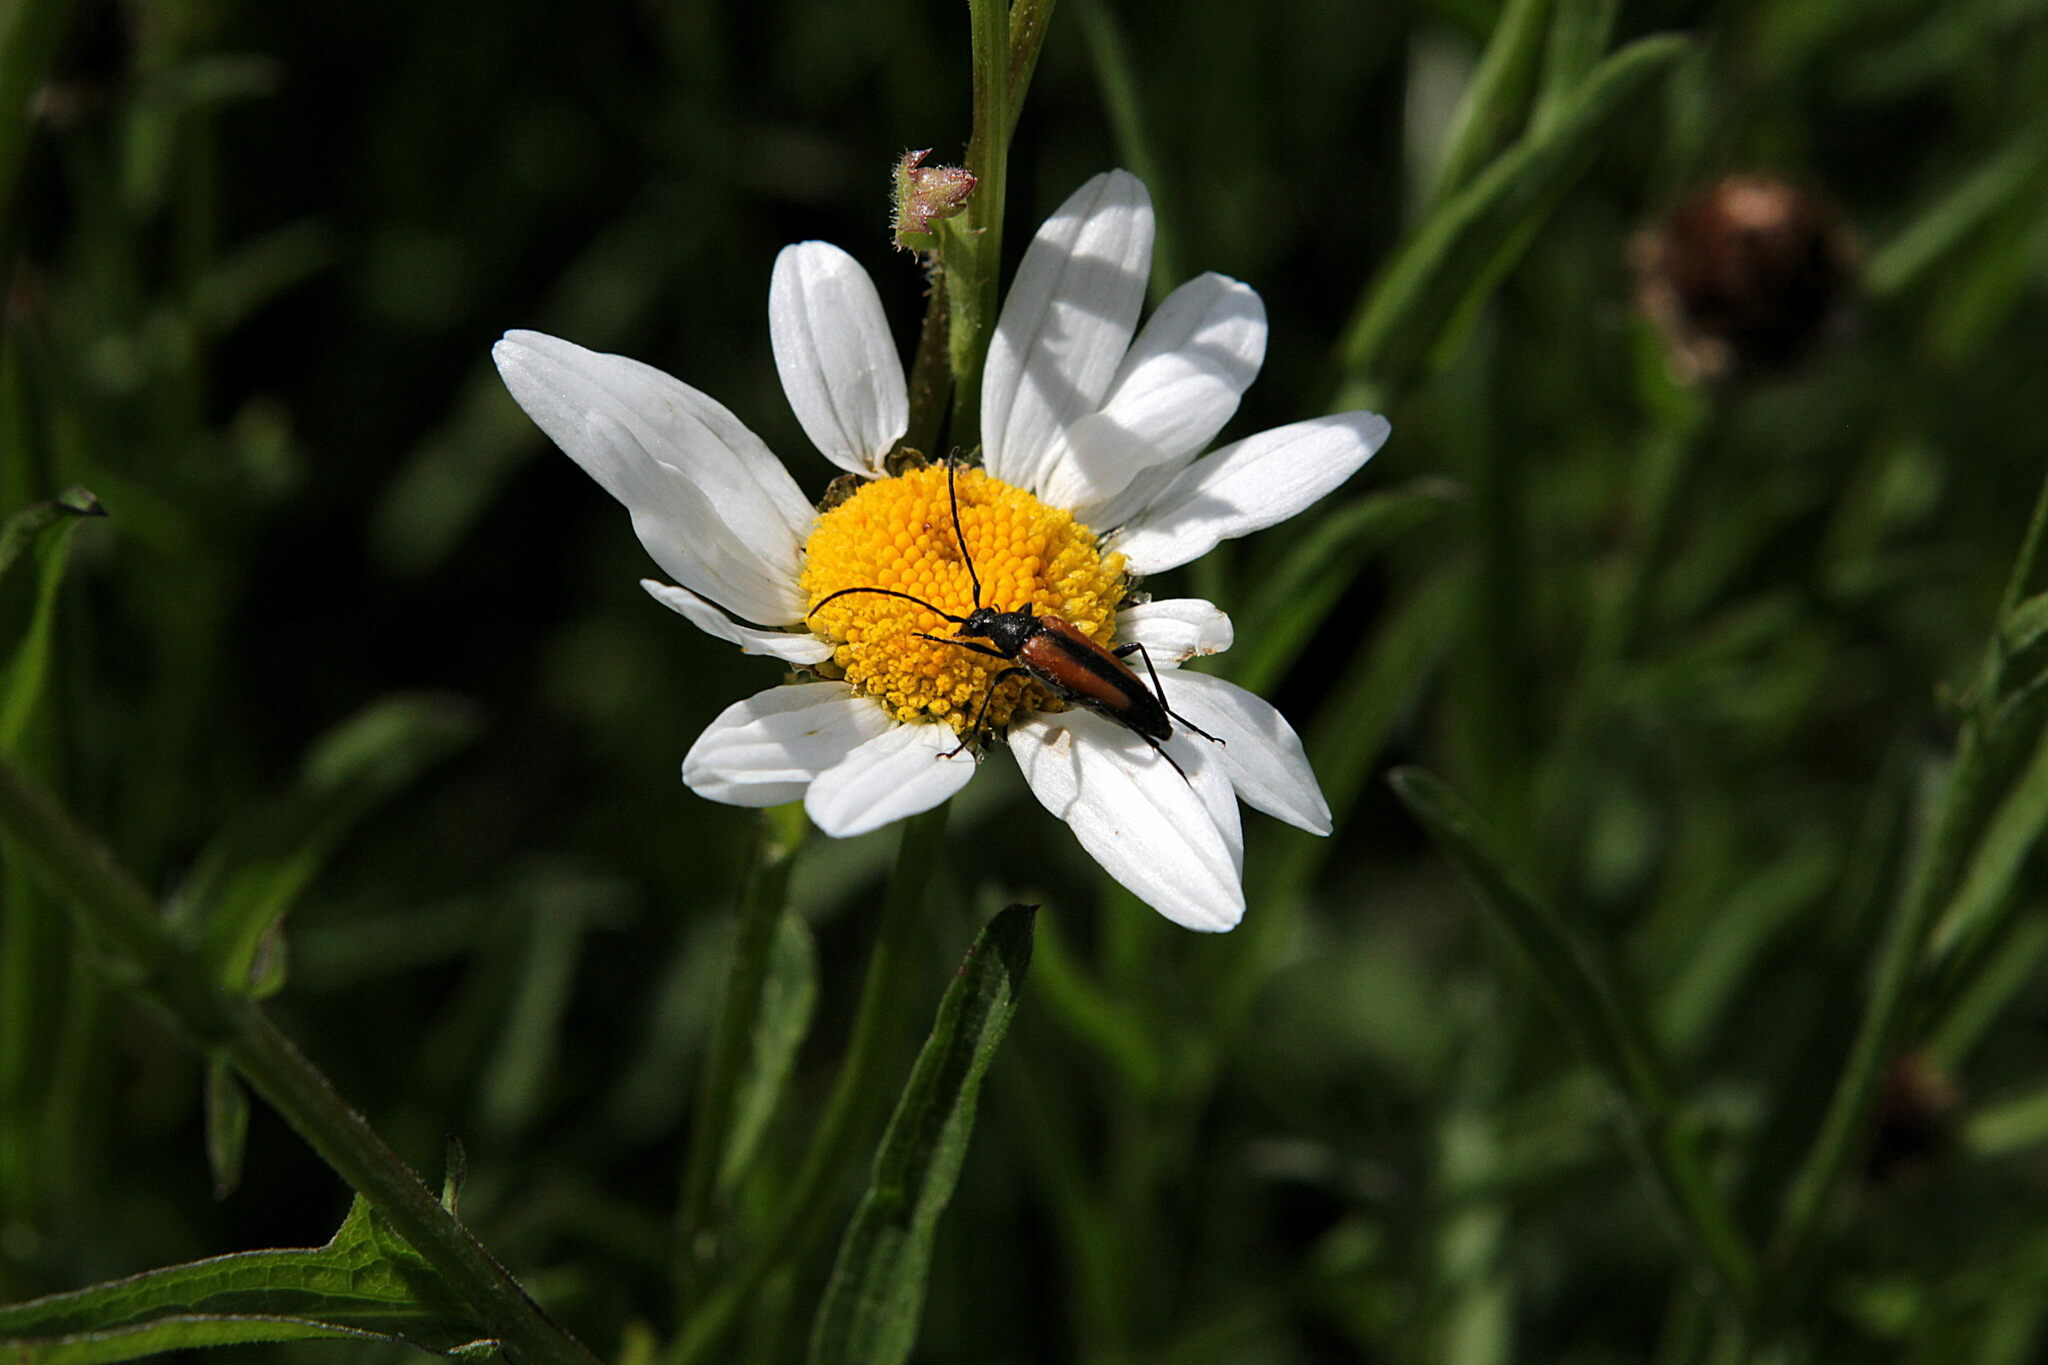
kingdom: Animalia
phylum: Arthropoda
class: Insecta
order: Coleoptera
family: Cerambycidae
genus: Stenurella
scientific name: Stenurella melanura
